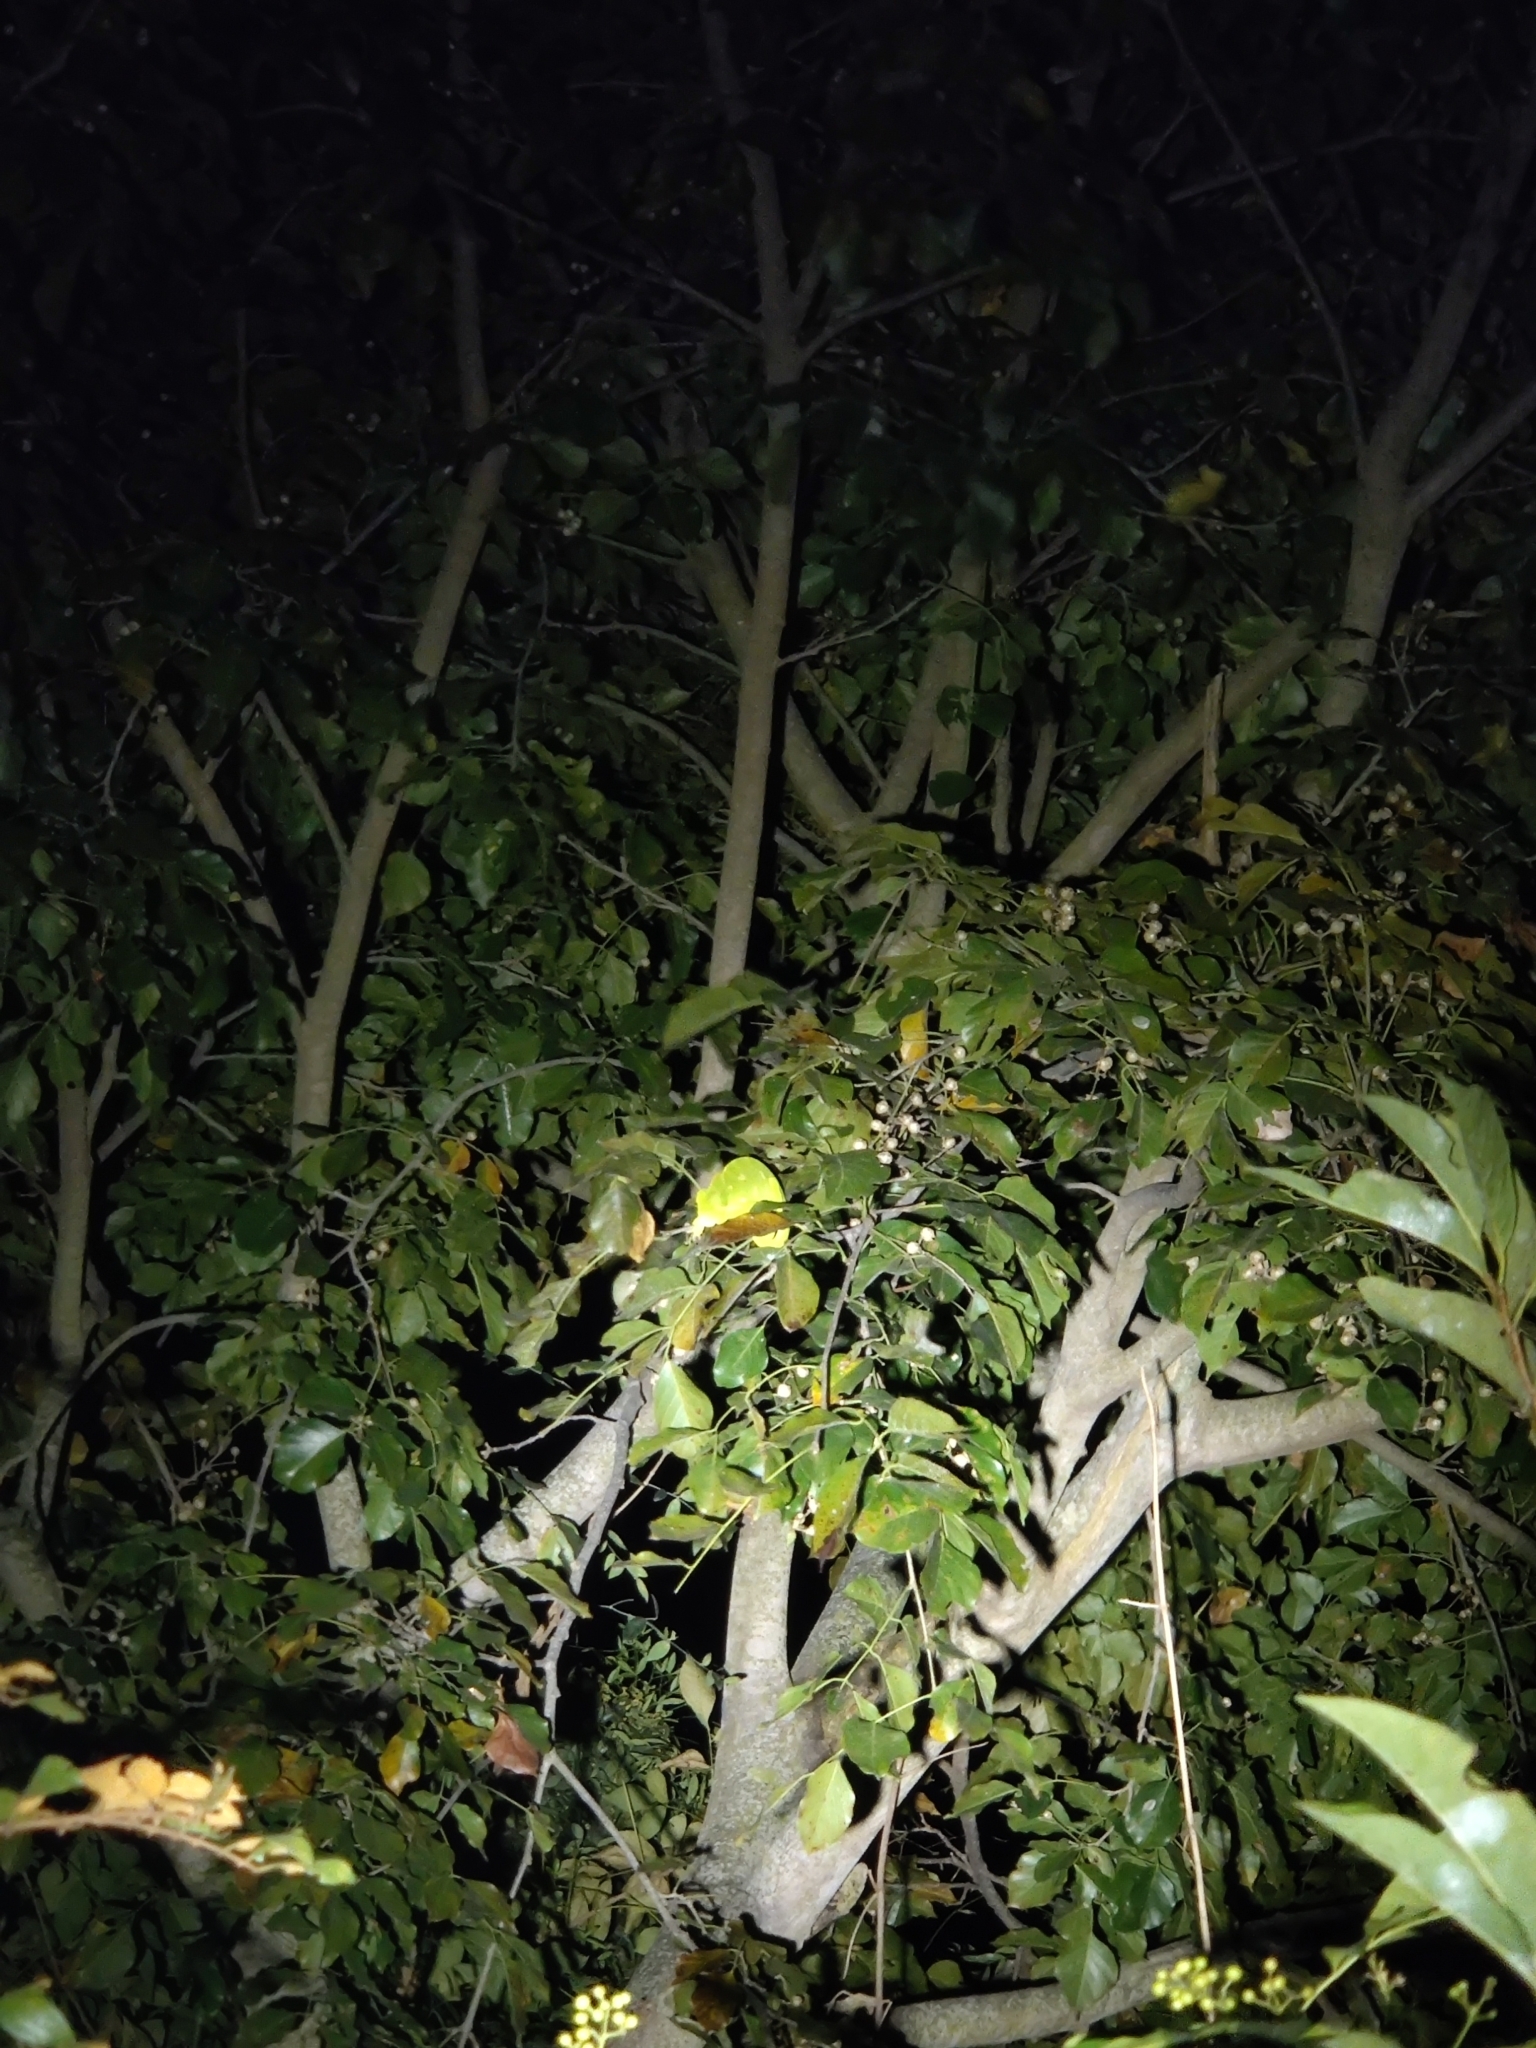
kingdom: Animalia
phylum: Chordata
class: Squamata
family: Chamaeleonidae
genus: Chamaeleo
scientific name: Chamaeleo zeylanicus
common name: Indian chameleon
